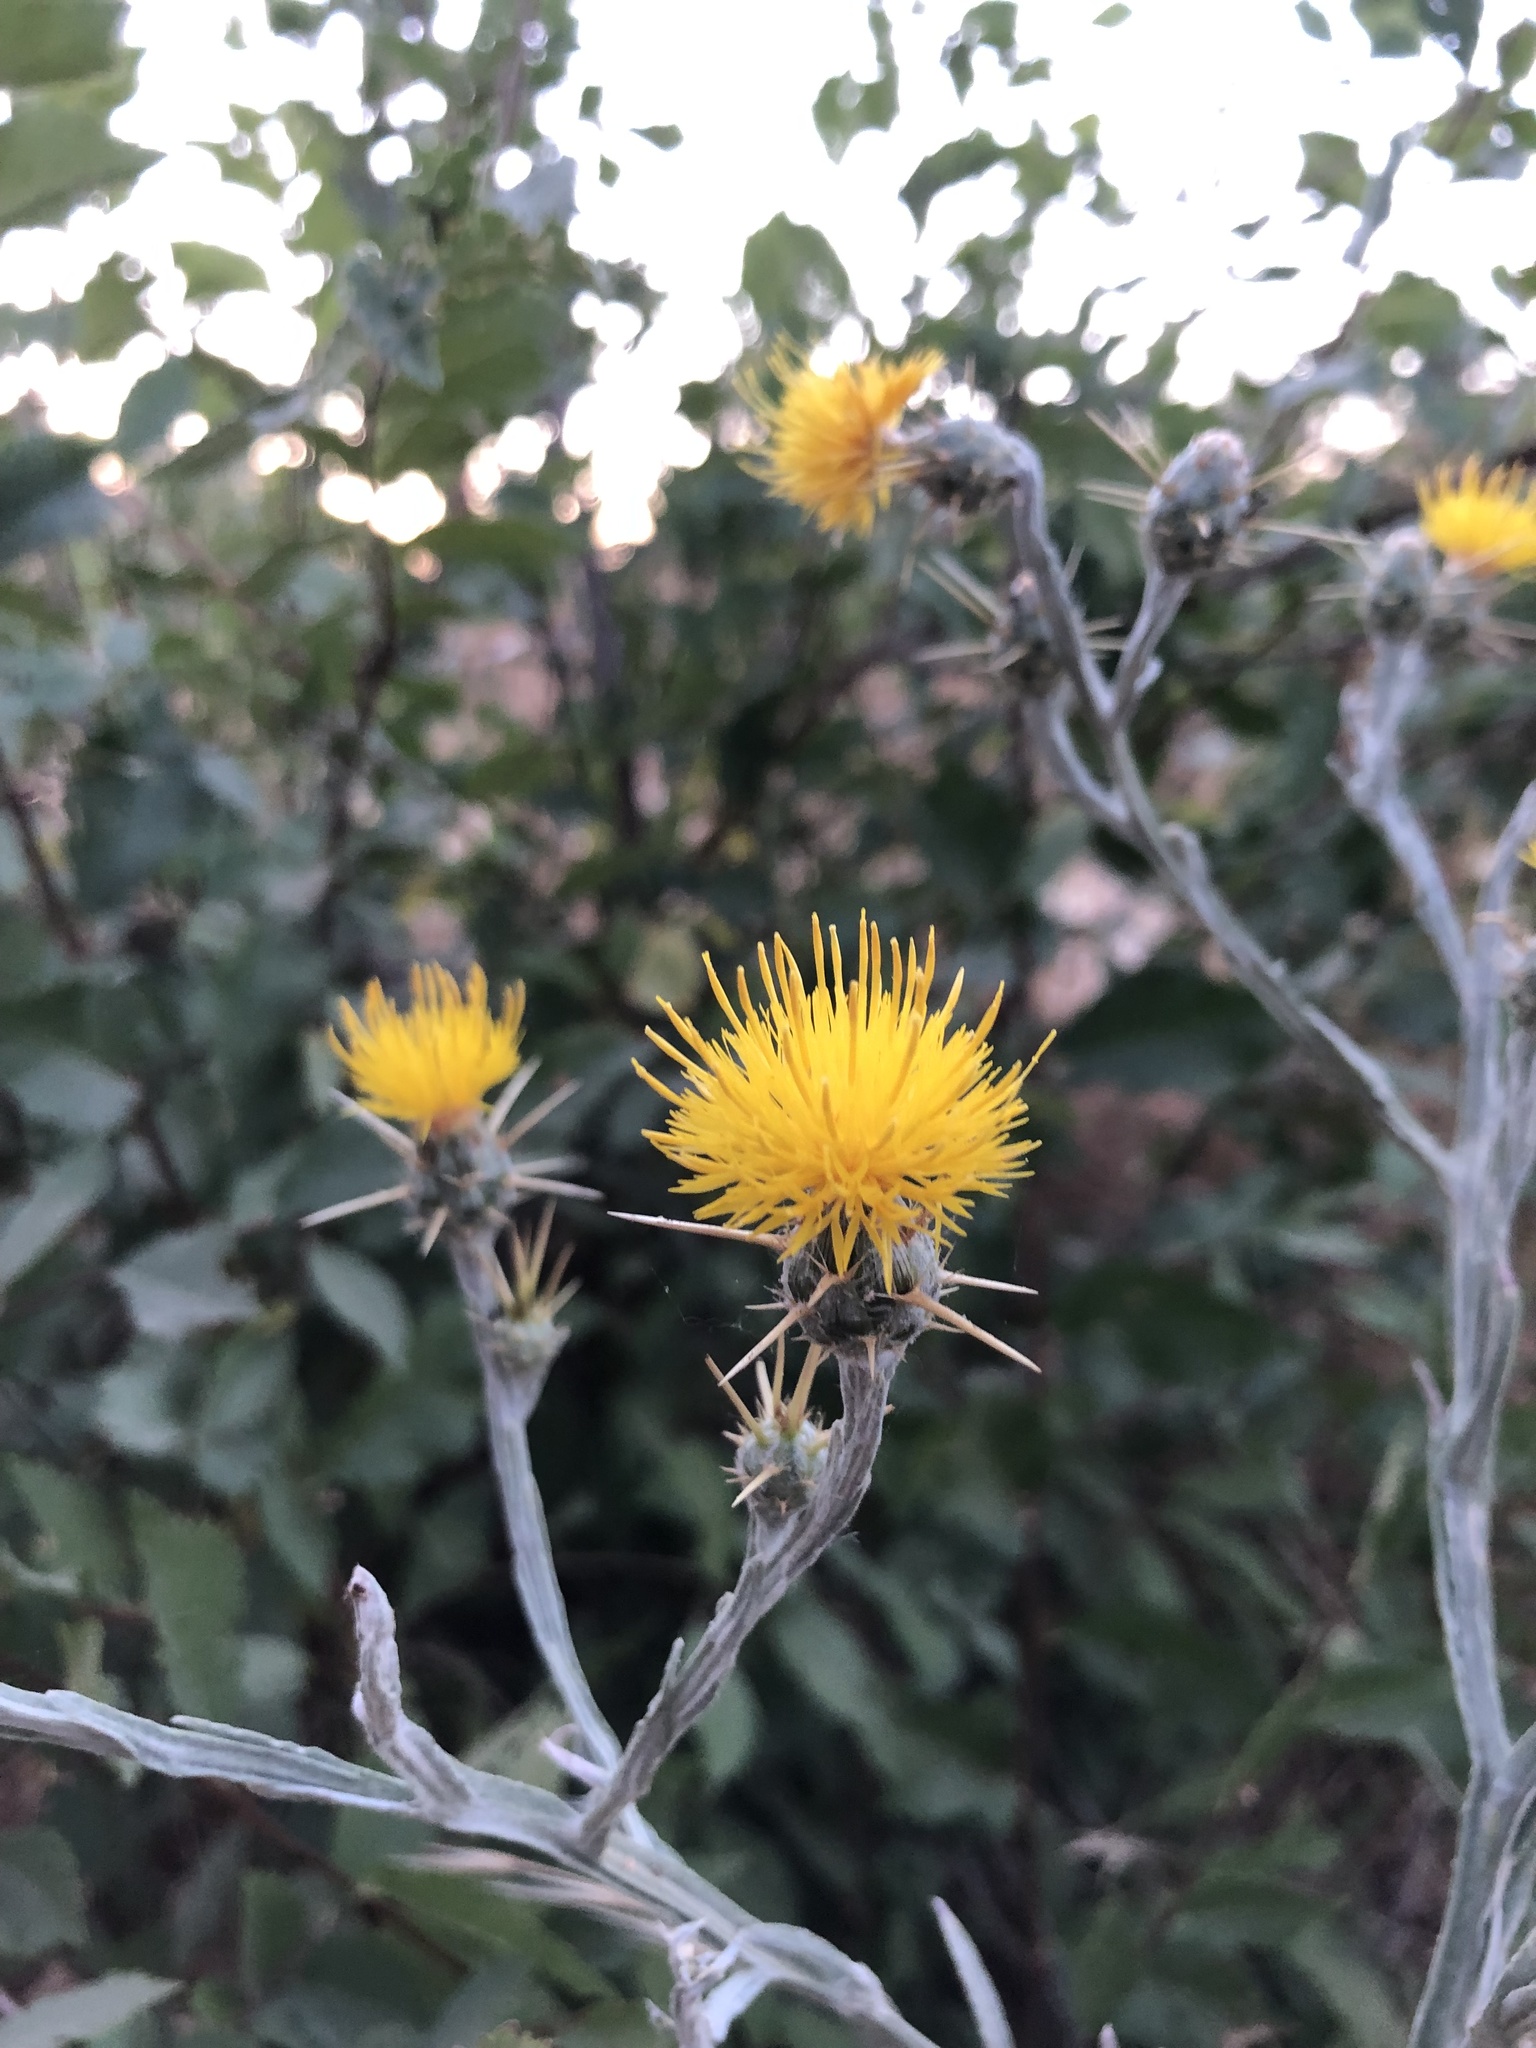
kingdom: Plantae
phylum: Tracheophyta
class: Magnoliopsida
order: Asterales
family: Asteraceae
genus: Centaurea
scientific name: Centaurea solstitialis
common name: Yellow star-thistle
